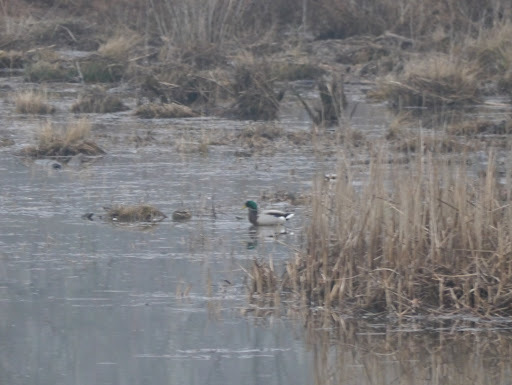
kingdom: Animalia
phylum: Chordata
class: Aves
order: Anseriformes
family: Anatidae
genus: Anas
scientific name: Anas platyrhynchos
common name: Mallard
